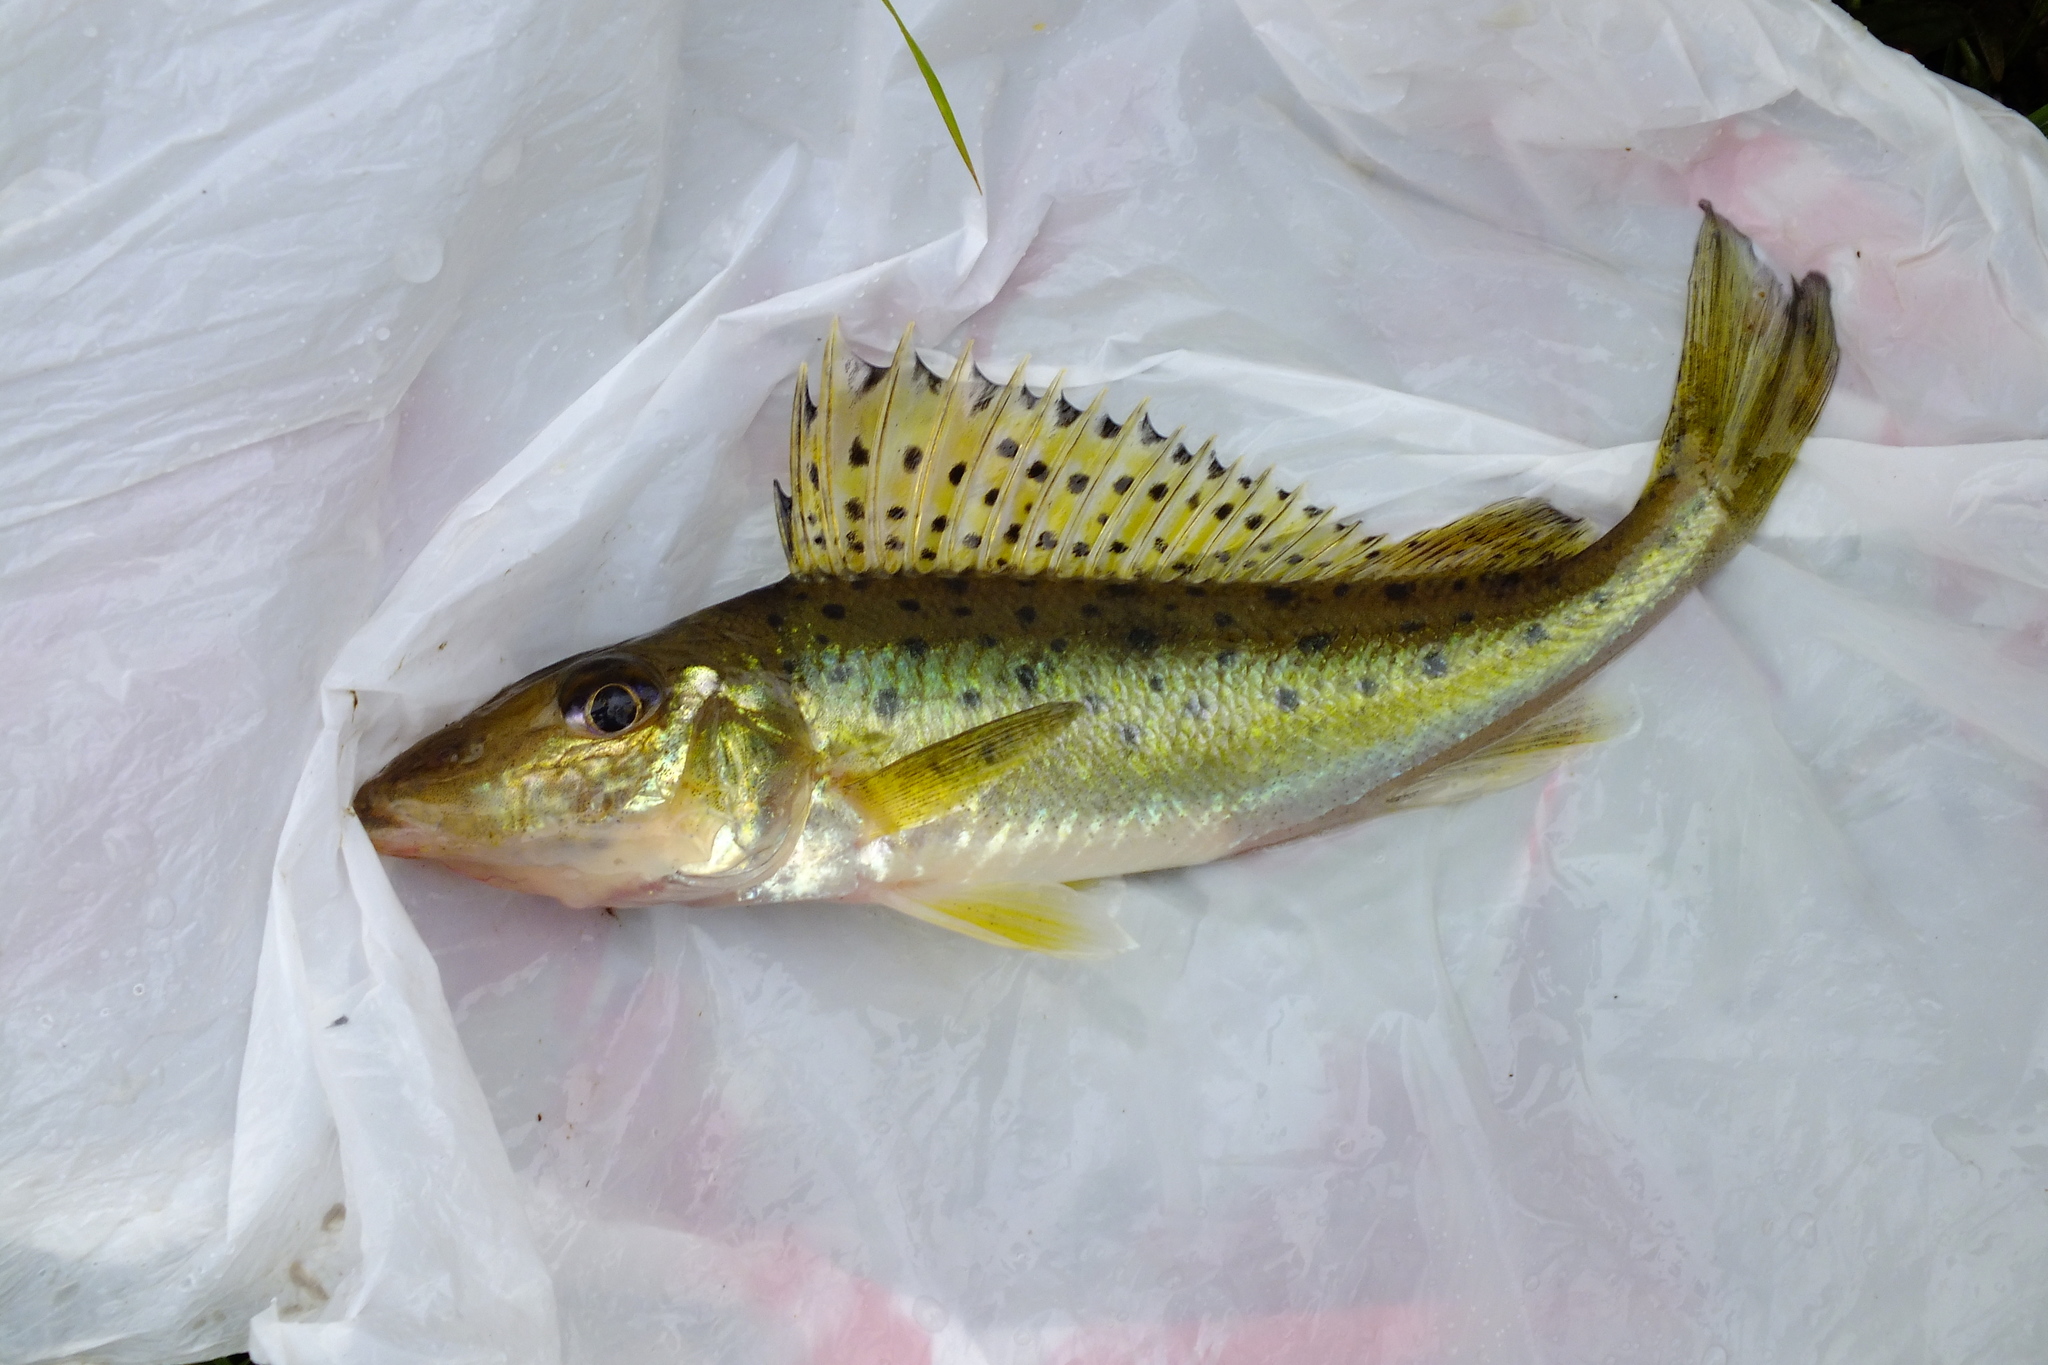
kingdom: Animalia
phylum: Chordata
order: Perciformes
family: Percidae
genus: Gymnocephalus
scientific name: Gymnocephalus acerina
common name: Don ruffe
